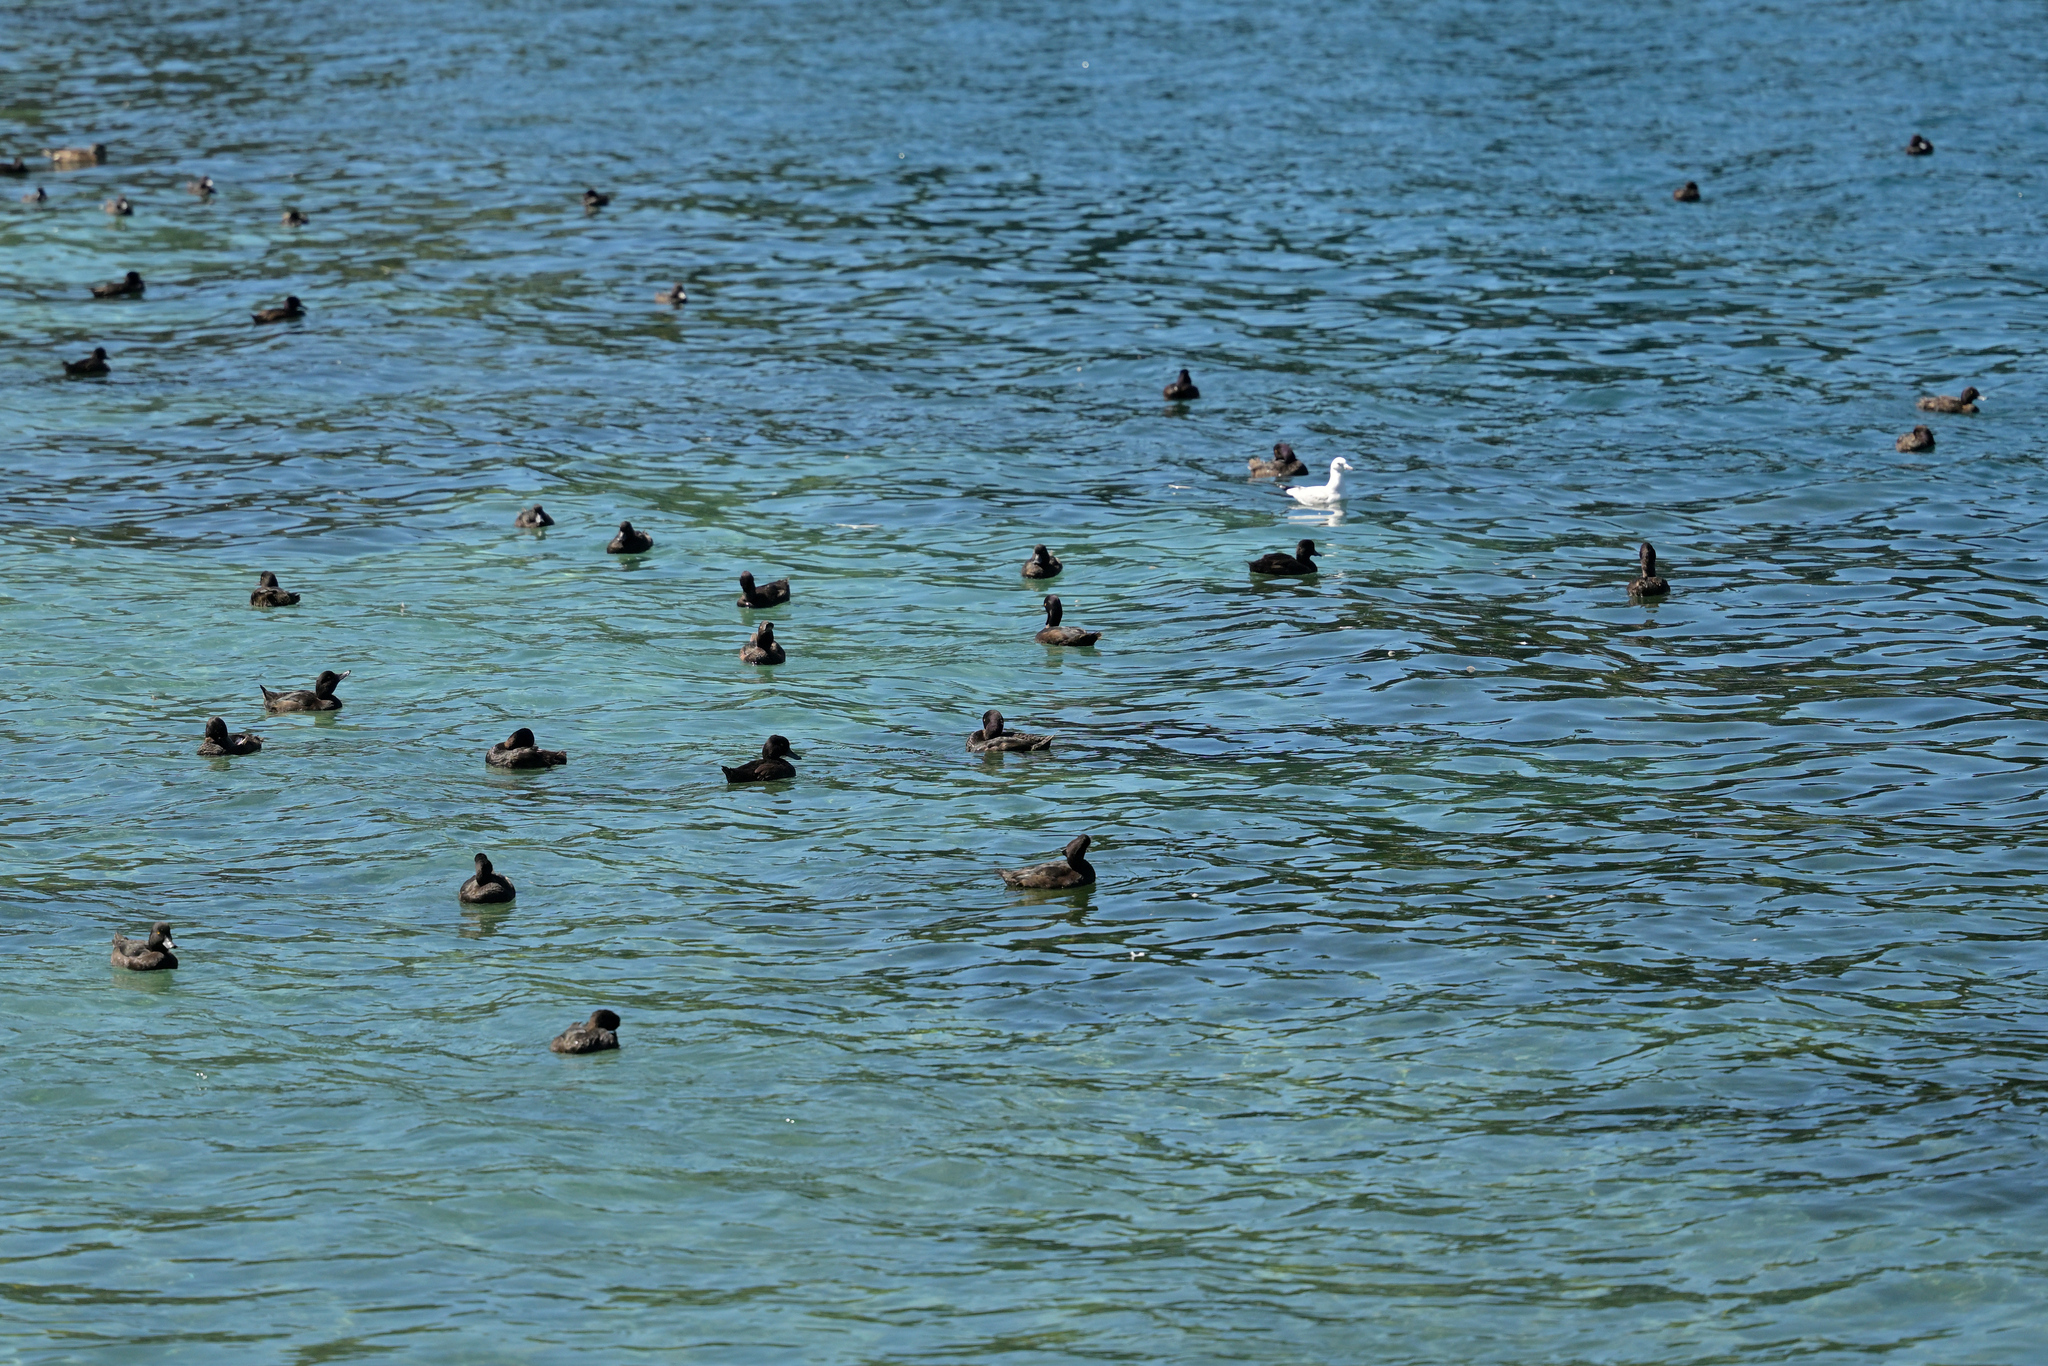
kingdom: Animalia
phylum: Chordata
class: Aves
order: Anseriformes
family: Anatidae
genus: Aythya
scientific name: Aythya novaeseelandiae
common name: New zealand scaup
